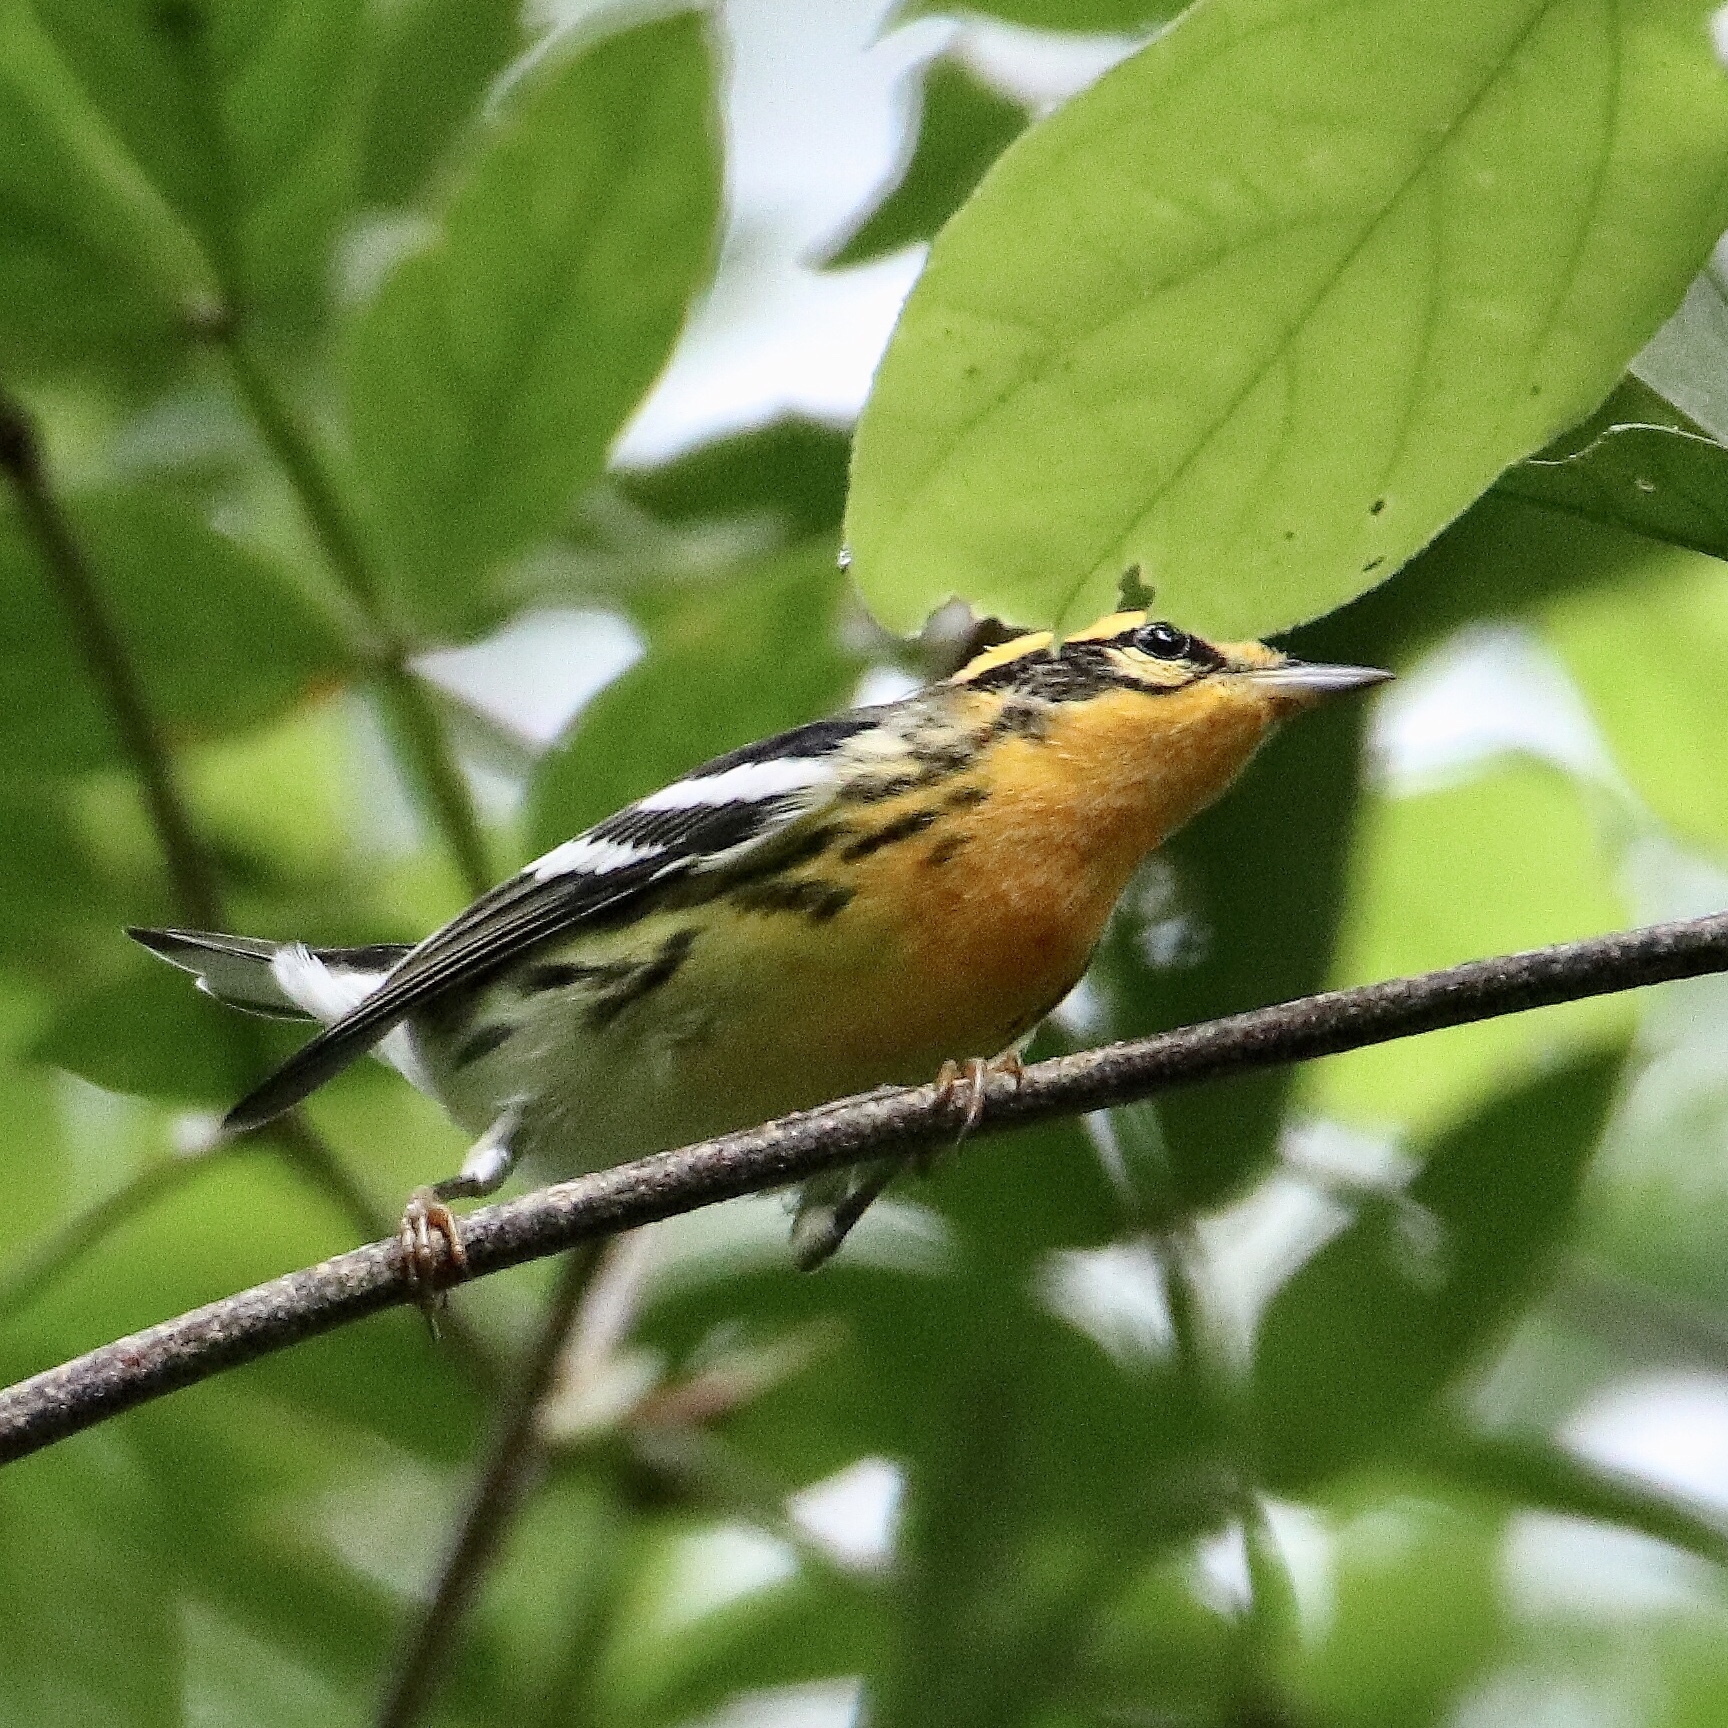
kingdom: Animalia
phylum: Chordata
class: Aves
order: Passeriformes
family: Parulidae
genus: Setophaga
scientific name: Setophaga fusca
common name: Blackburnian warbler
